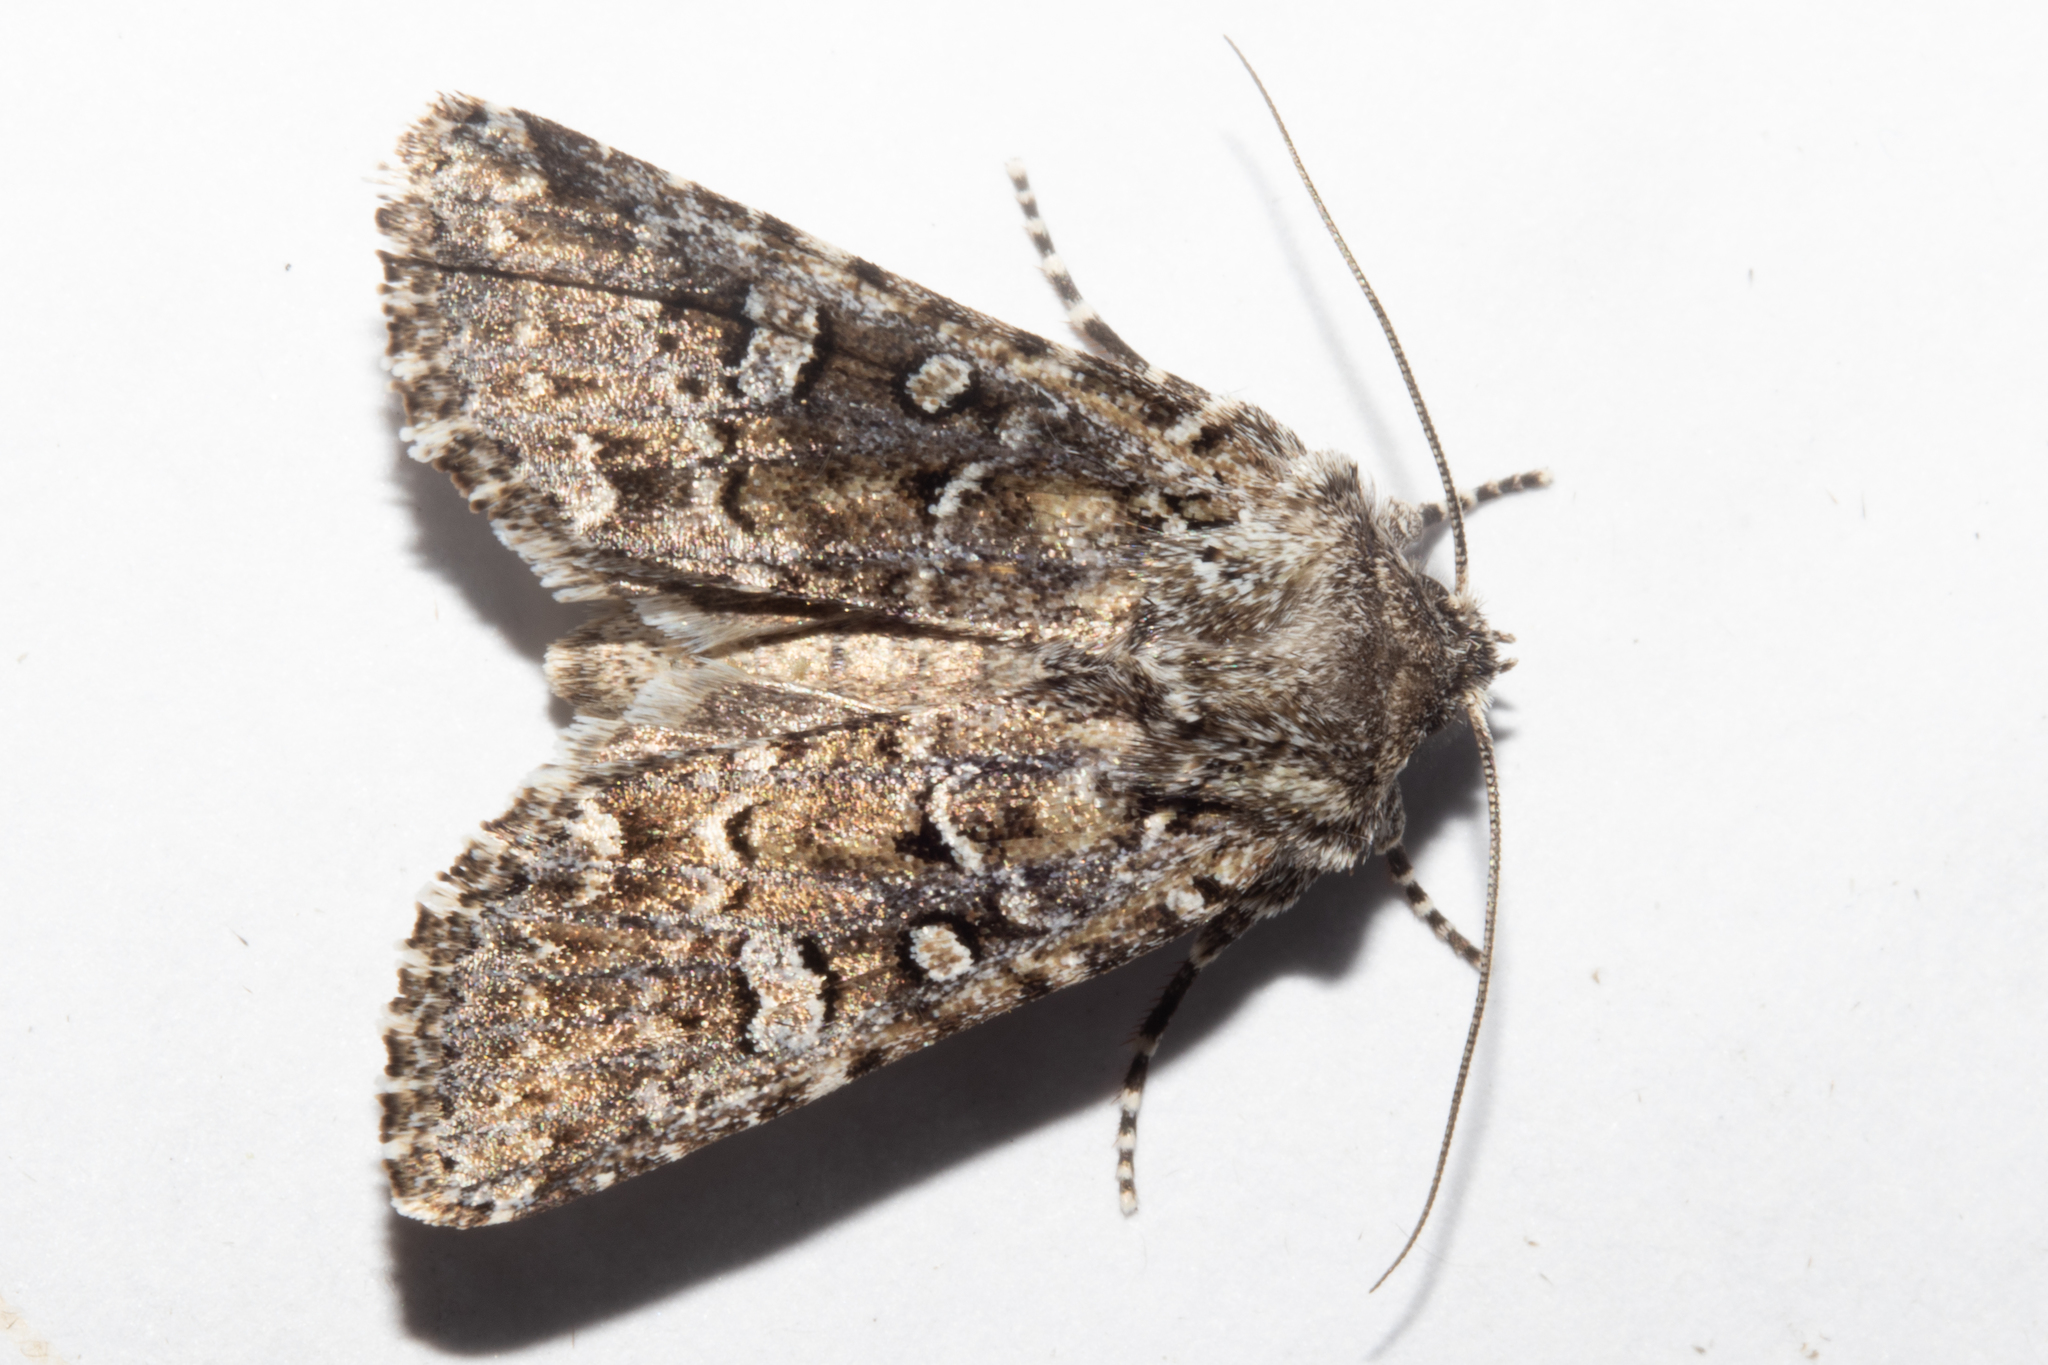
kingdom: Animalia
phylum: Arthropoda
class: Insecta
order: Lepidoptera
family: Noctuidae
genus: Ichneutica
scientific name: Ichneutica lithias
